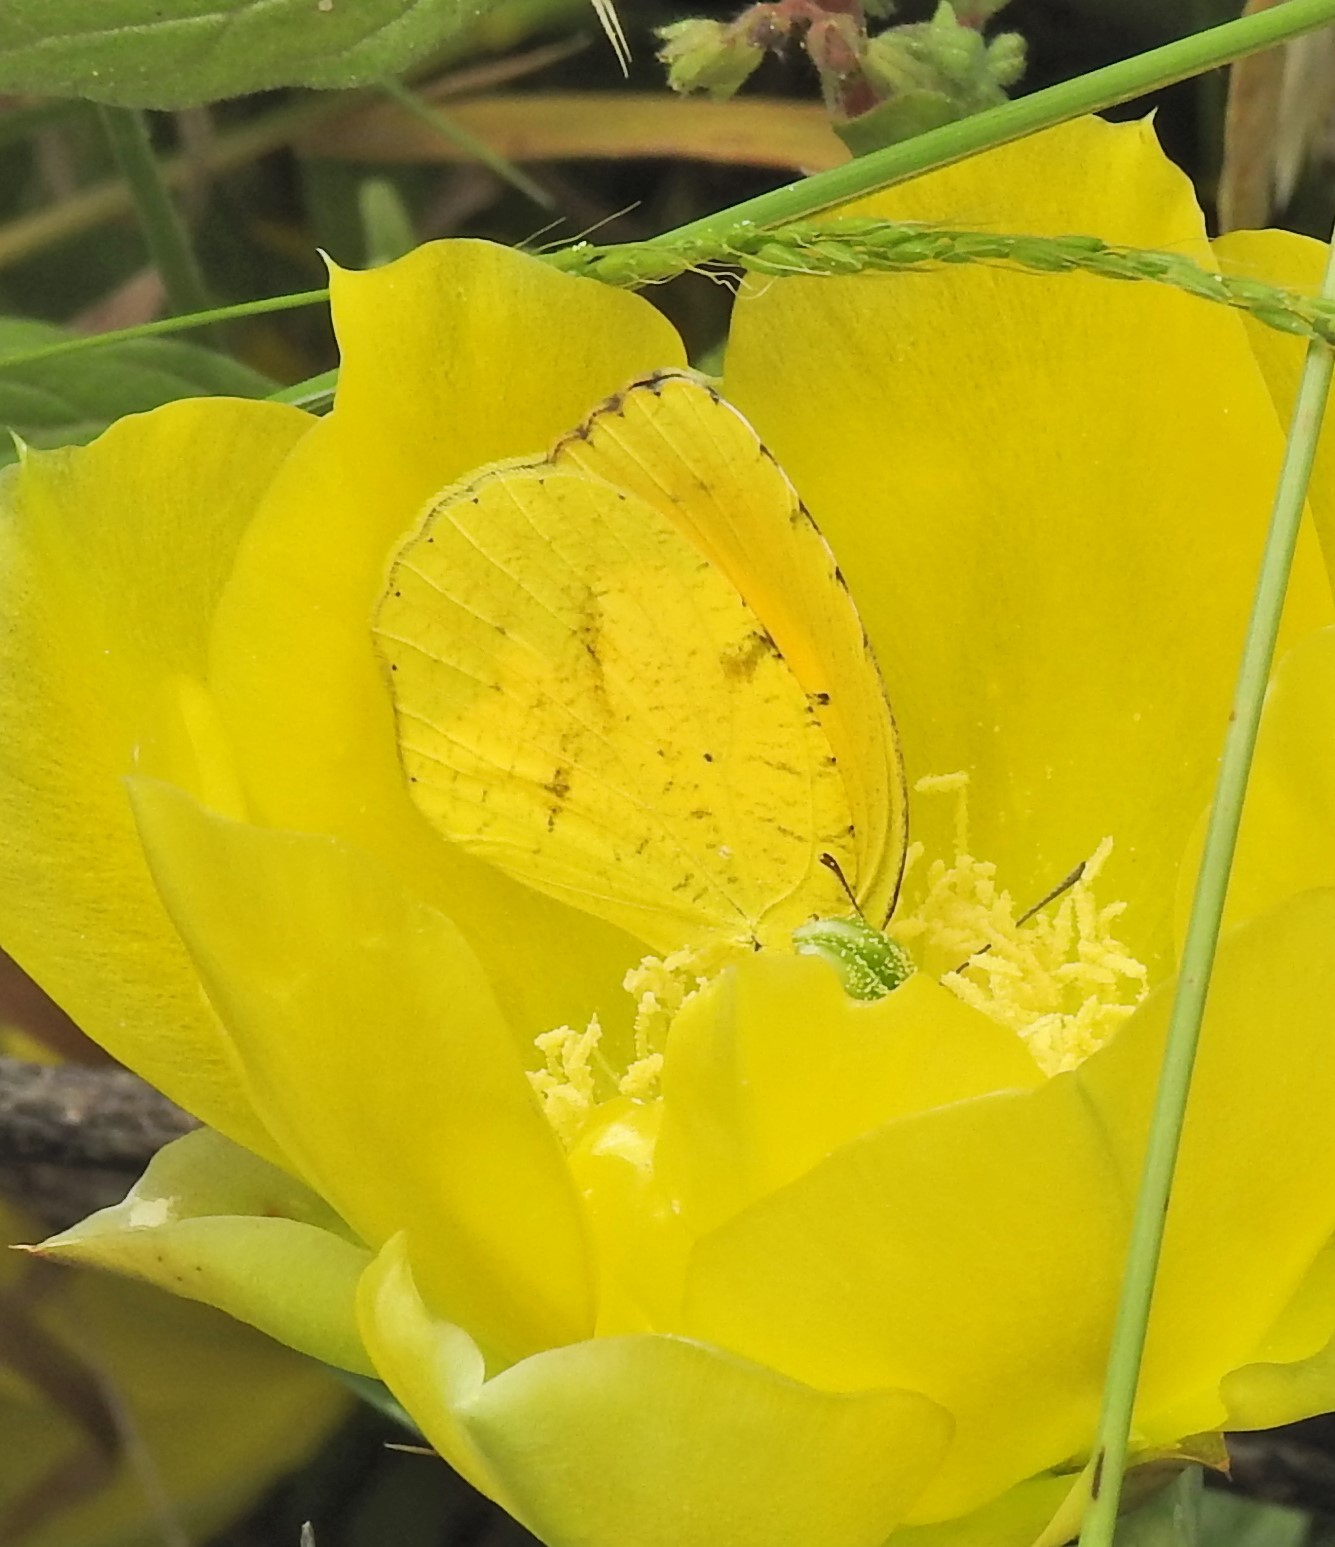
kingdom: Animalia
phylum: Arthropoda
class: Insecta
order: Lepidoptera
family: Pieridae
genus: Abaeis
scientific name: Abaeis nicippe
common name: Sleepy orange
